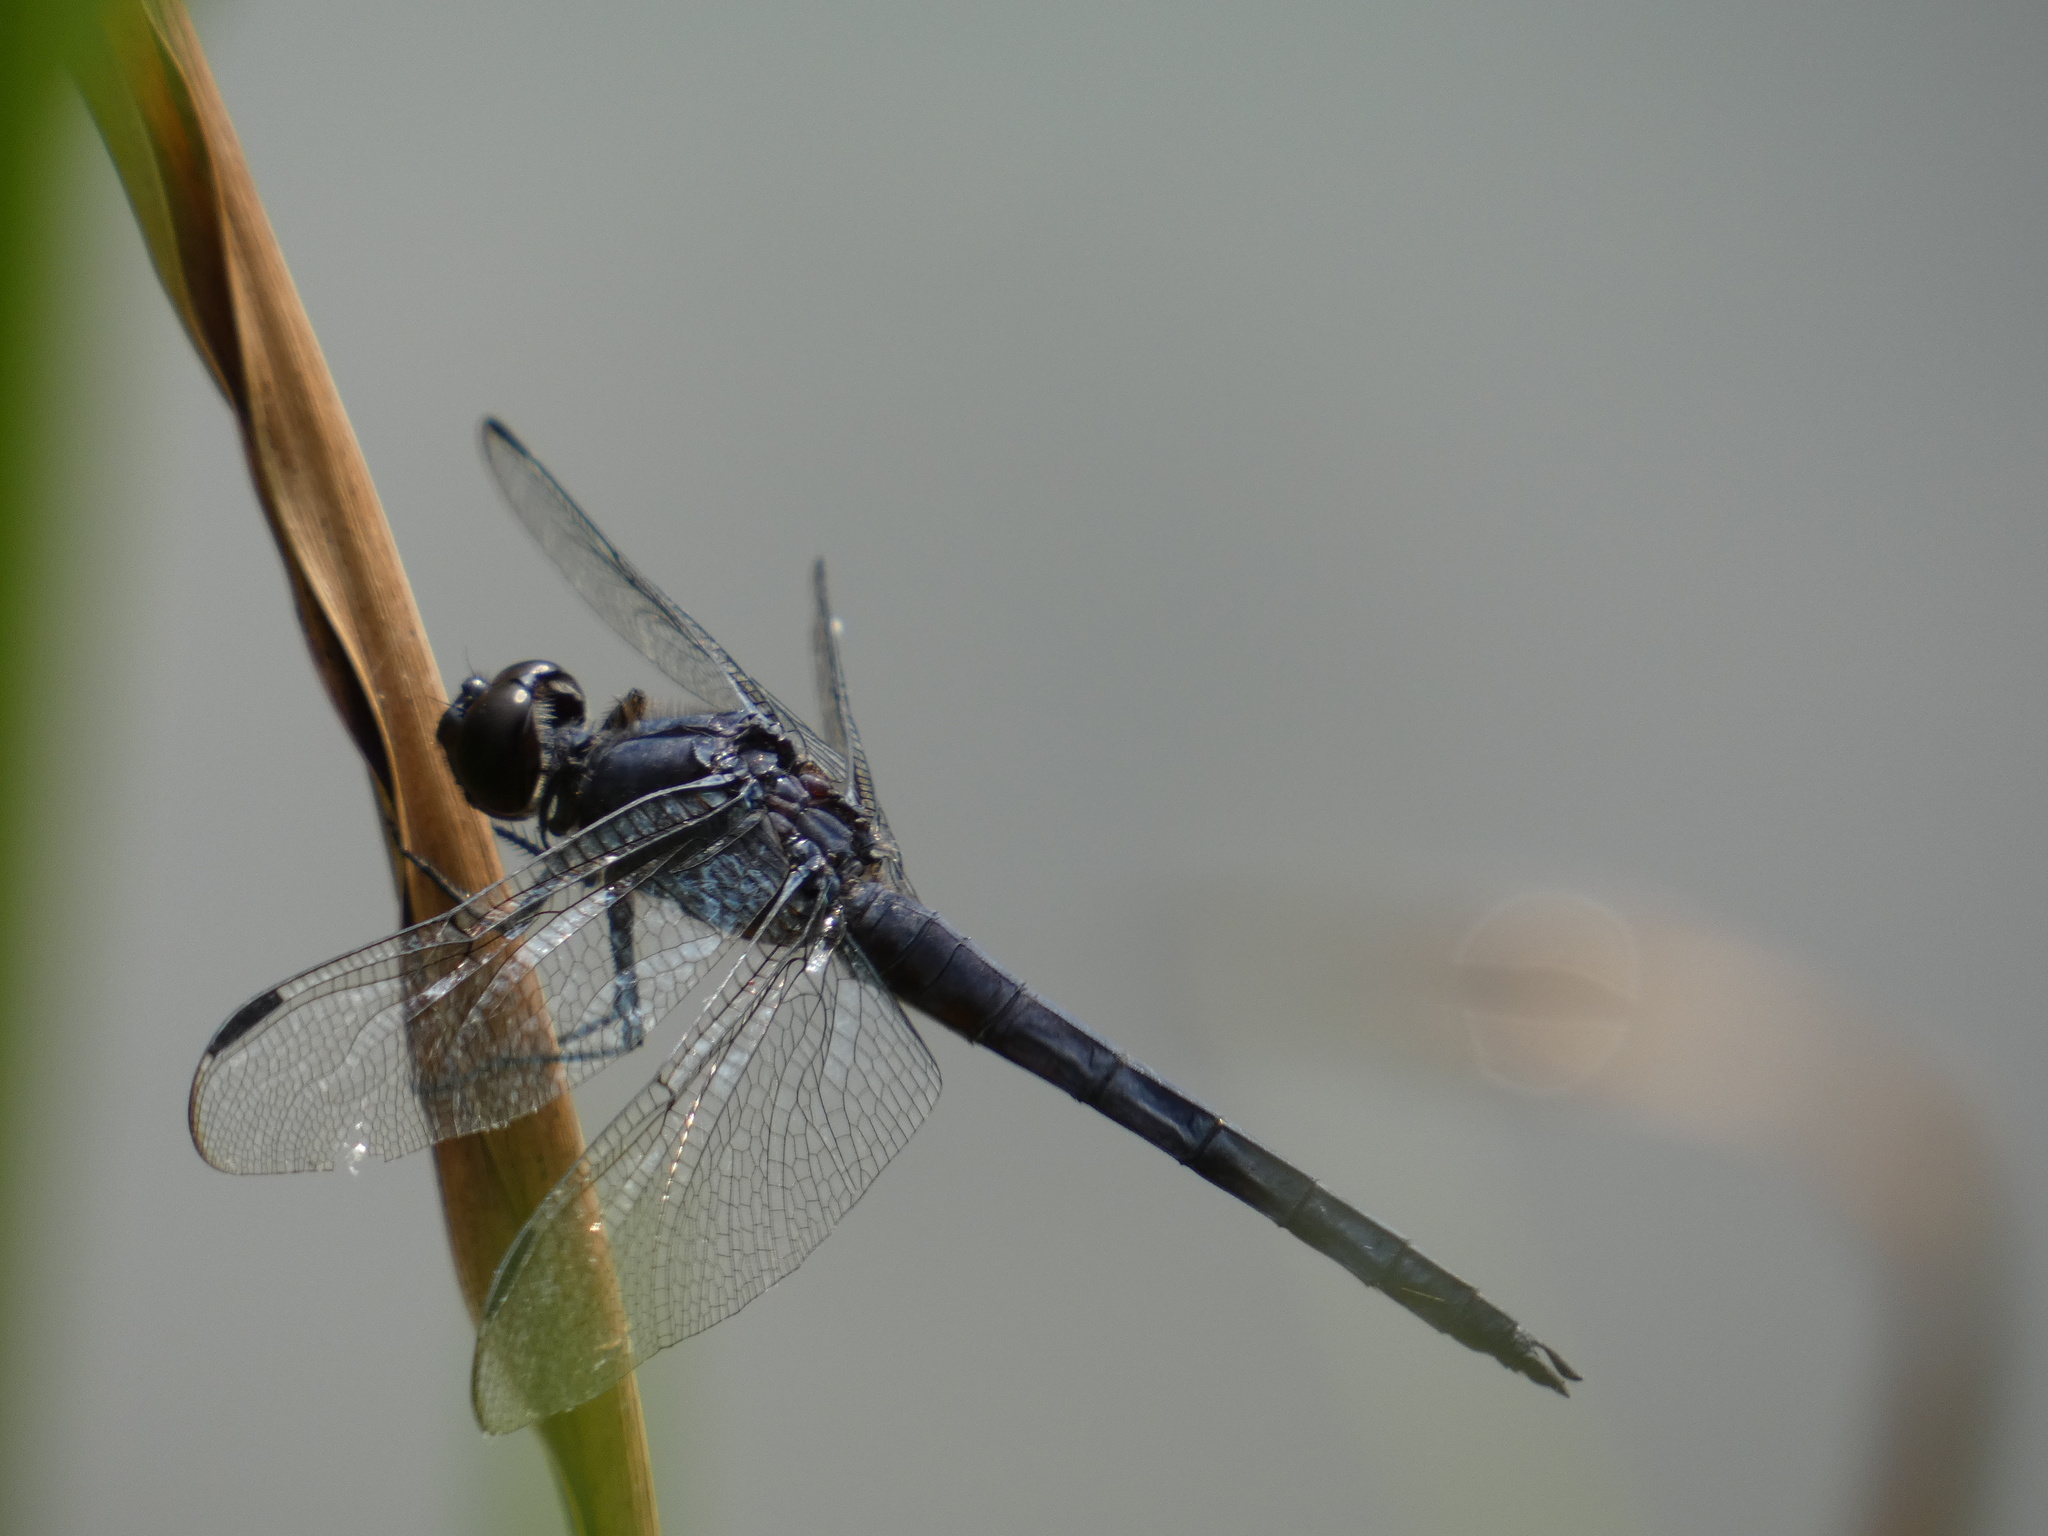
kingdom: Animalia
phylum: Arthropoda
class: Insecta
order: Odonata
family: Libellulidae
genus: Libellula
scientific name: Libellula incesta
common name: Slaty skimmer
